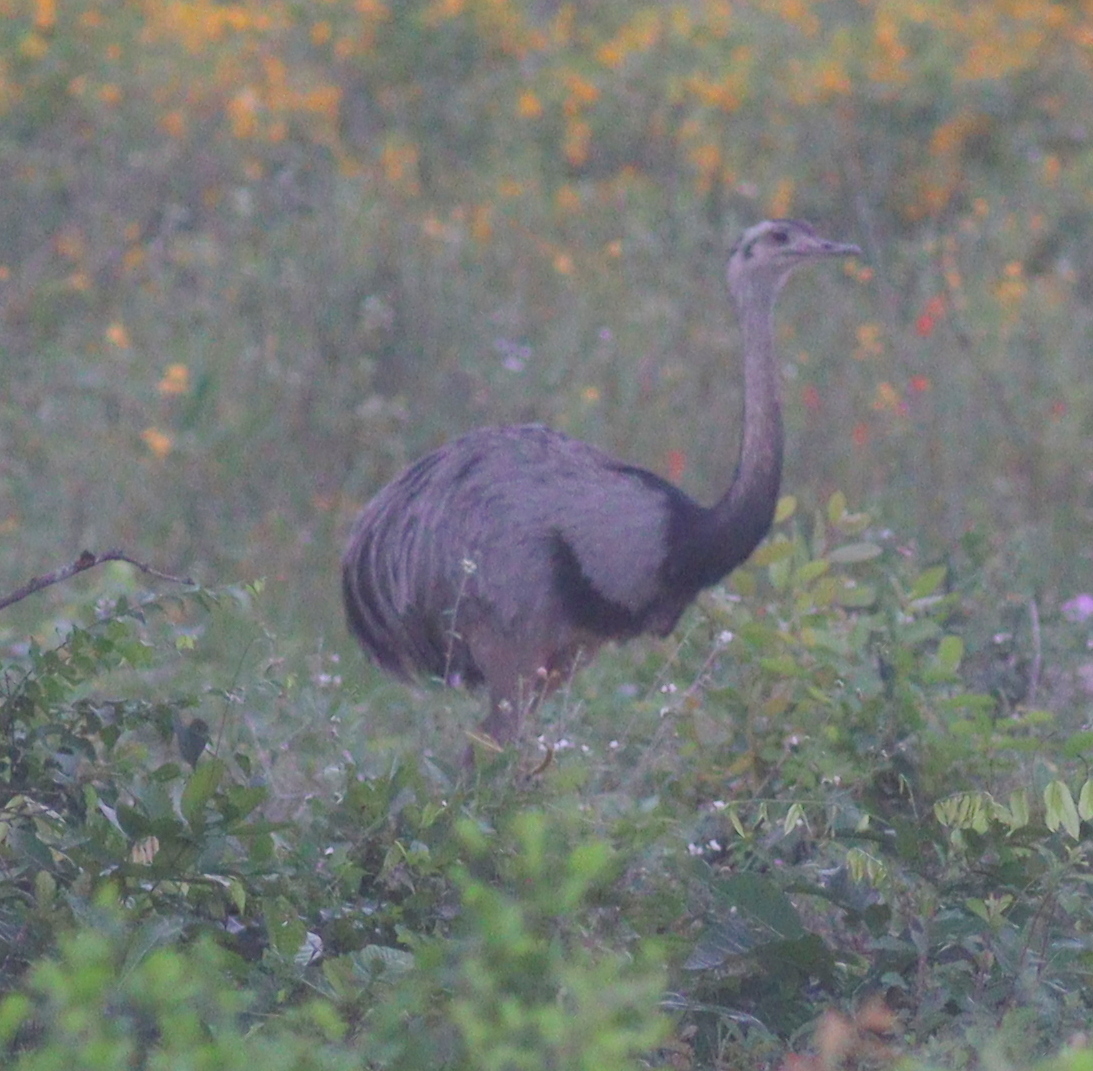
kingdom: Animalia
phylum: Chordata
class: Aves
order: Rheiformes
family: Rheidae
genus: Rhea
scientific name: Rhea americana
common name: Greater rhea
